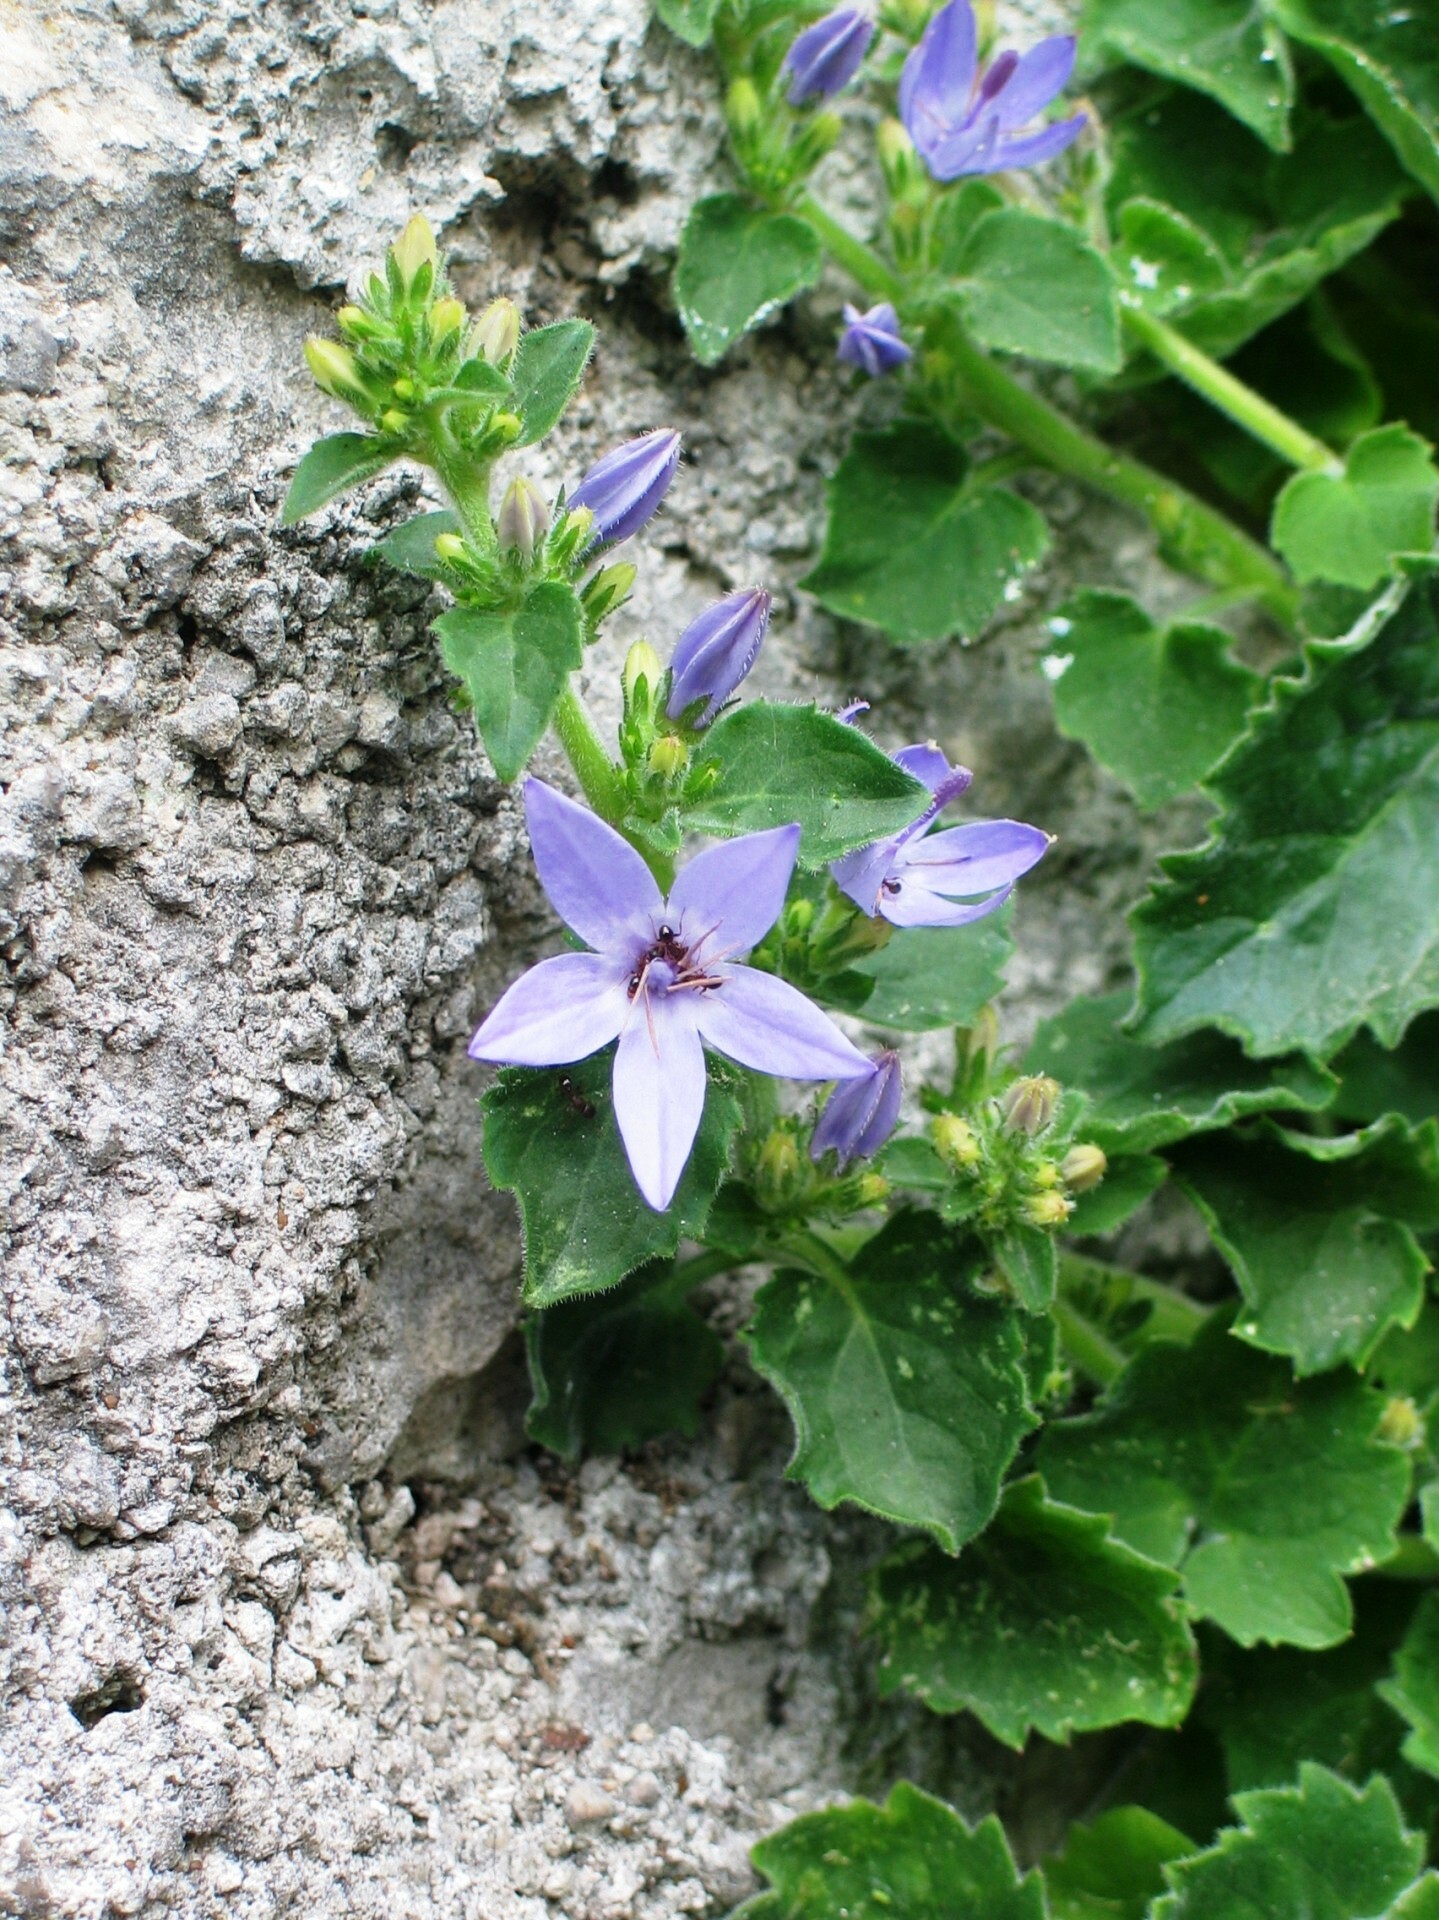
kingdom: Plantae
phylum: Tracheophyta
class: Magnoliopsida
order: Asterales
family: Campanulaceae
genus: Campanula
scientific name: Campanula fenestrellata
